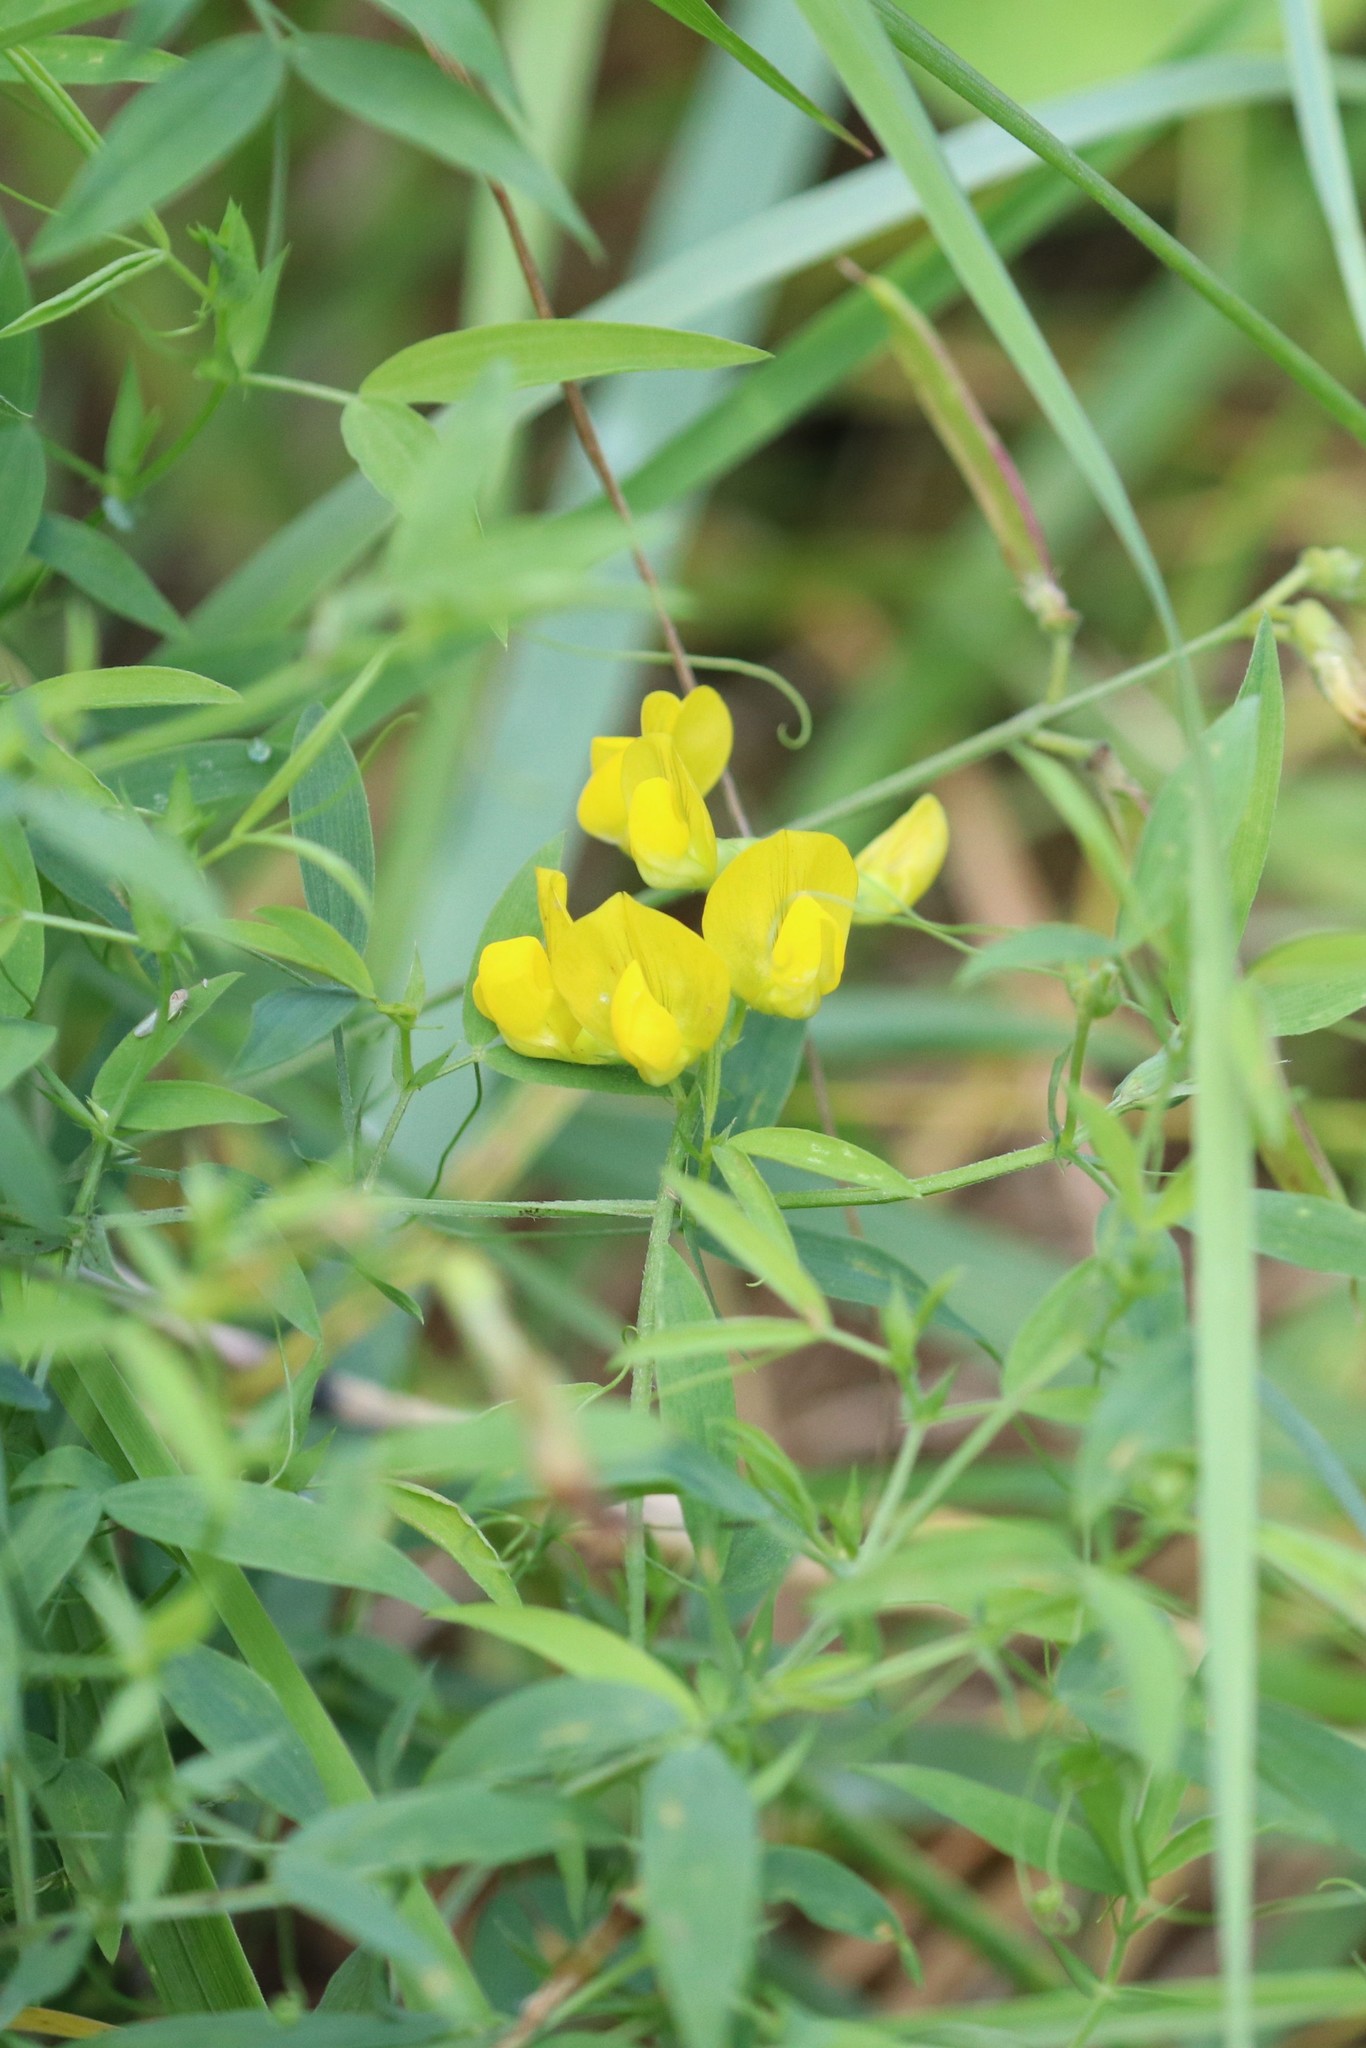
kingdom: Plantae
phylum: Tracheophyta
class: Magnoliopsida
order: Fabales
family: Fabaceae
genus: Lathyrus
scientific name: Lathyrus pratensis
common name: Meadow vetchling
